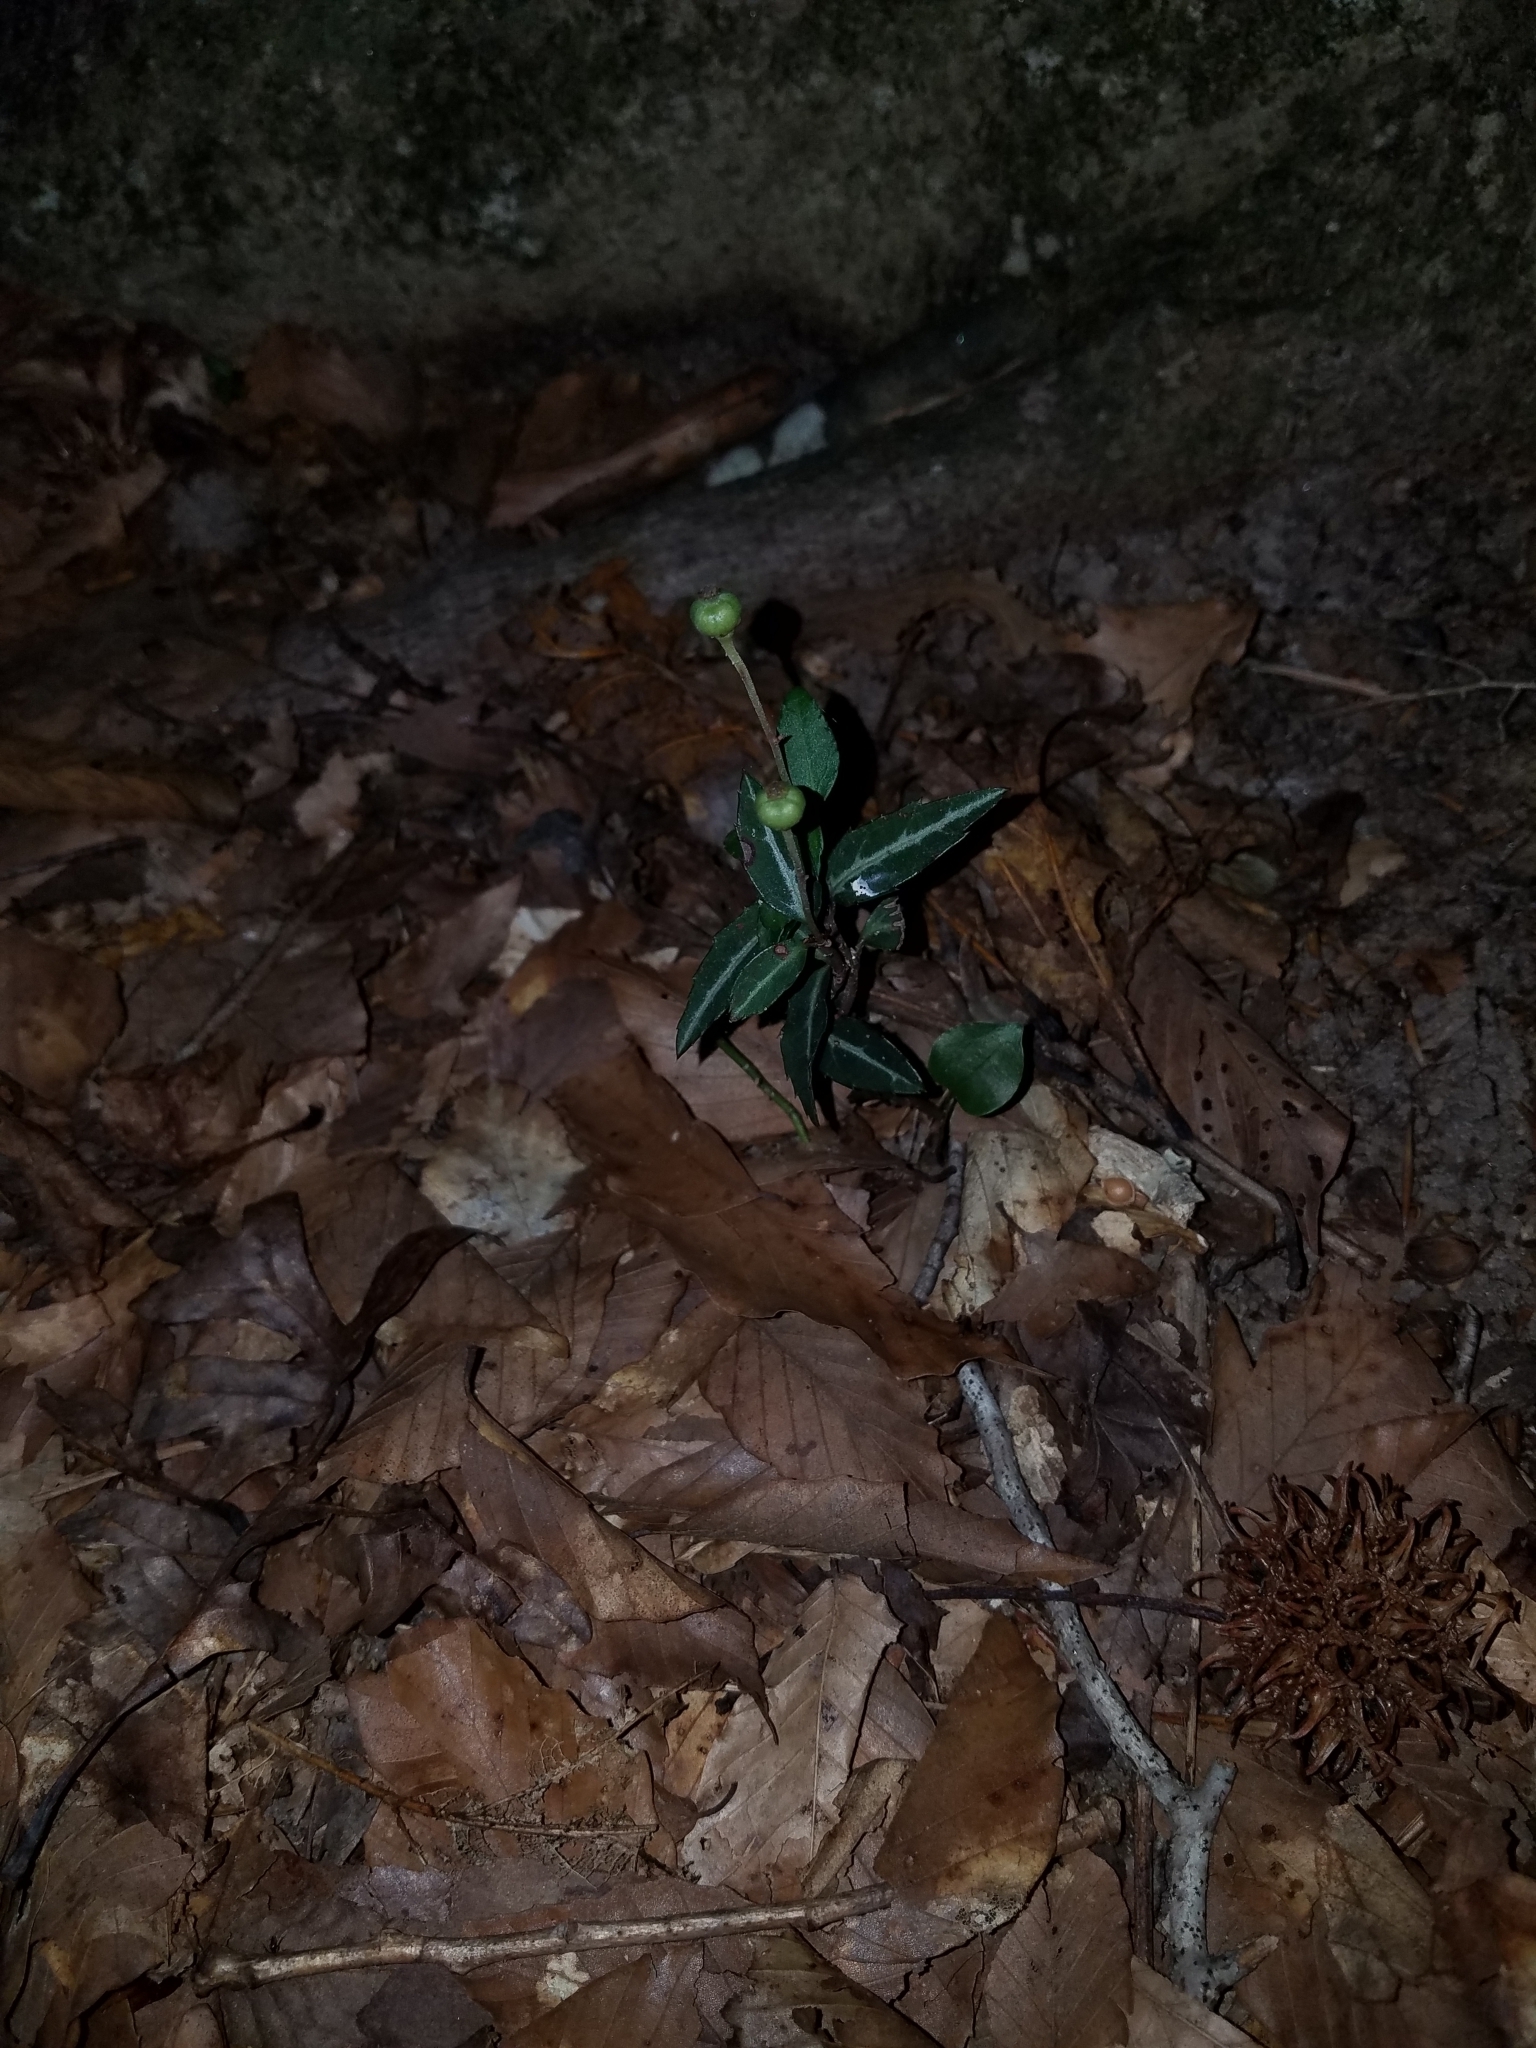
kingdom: Plantae
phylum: Tracheophyta
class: Magnoliopsida
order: Ericales
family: Ericaceae
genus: Chimaphila
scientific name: Chimaphila maculata
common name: Spotted pipsissewa
